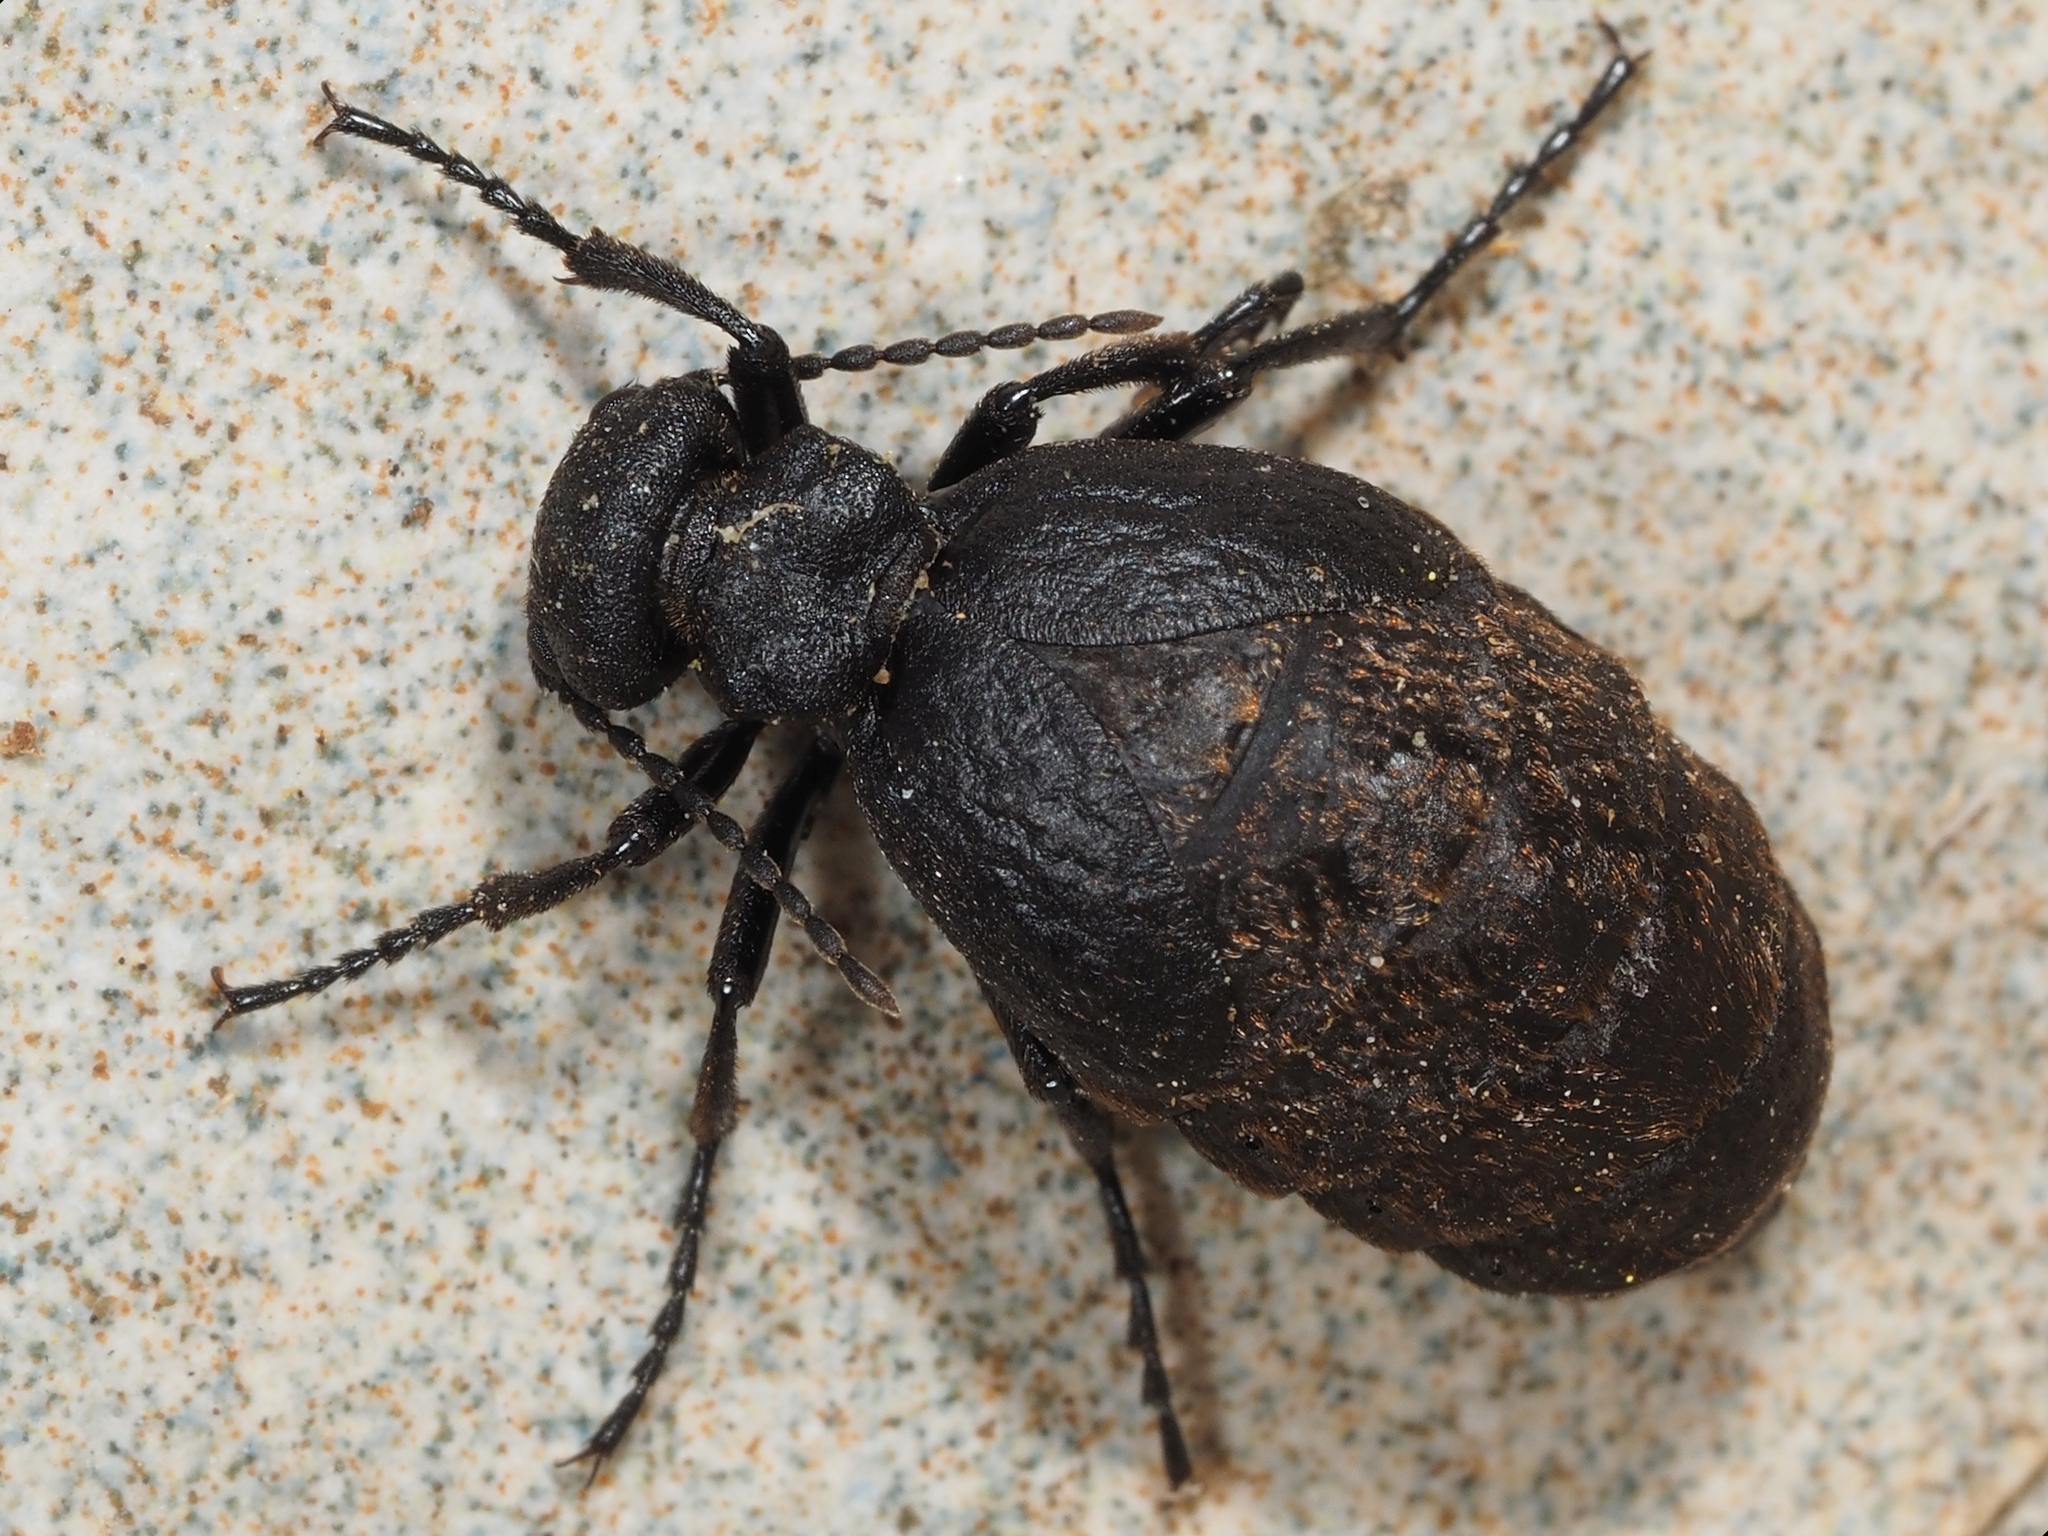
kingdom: Animalia
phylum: Arthropoda
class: Insecta
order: Coleoptera
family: Meloidae
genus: Eurymeloe
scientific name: Eurymeloe ganglbaueri
